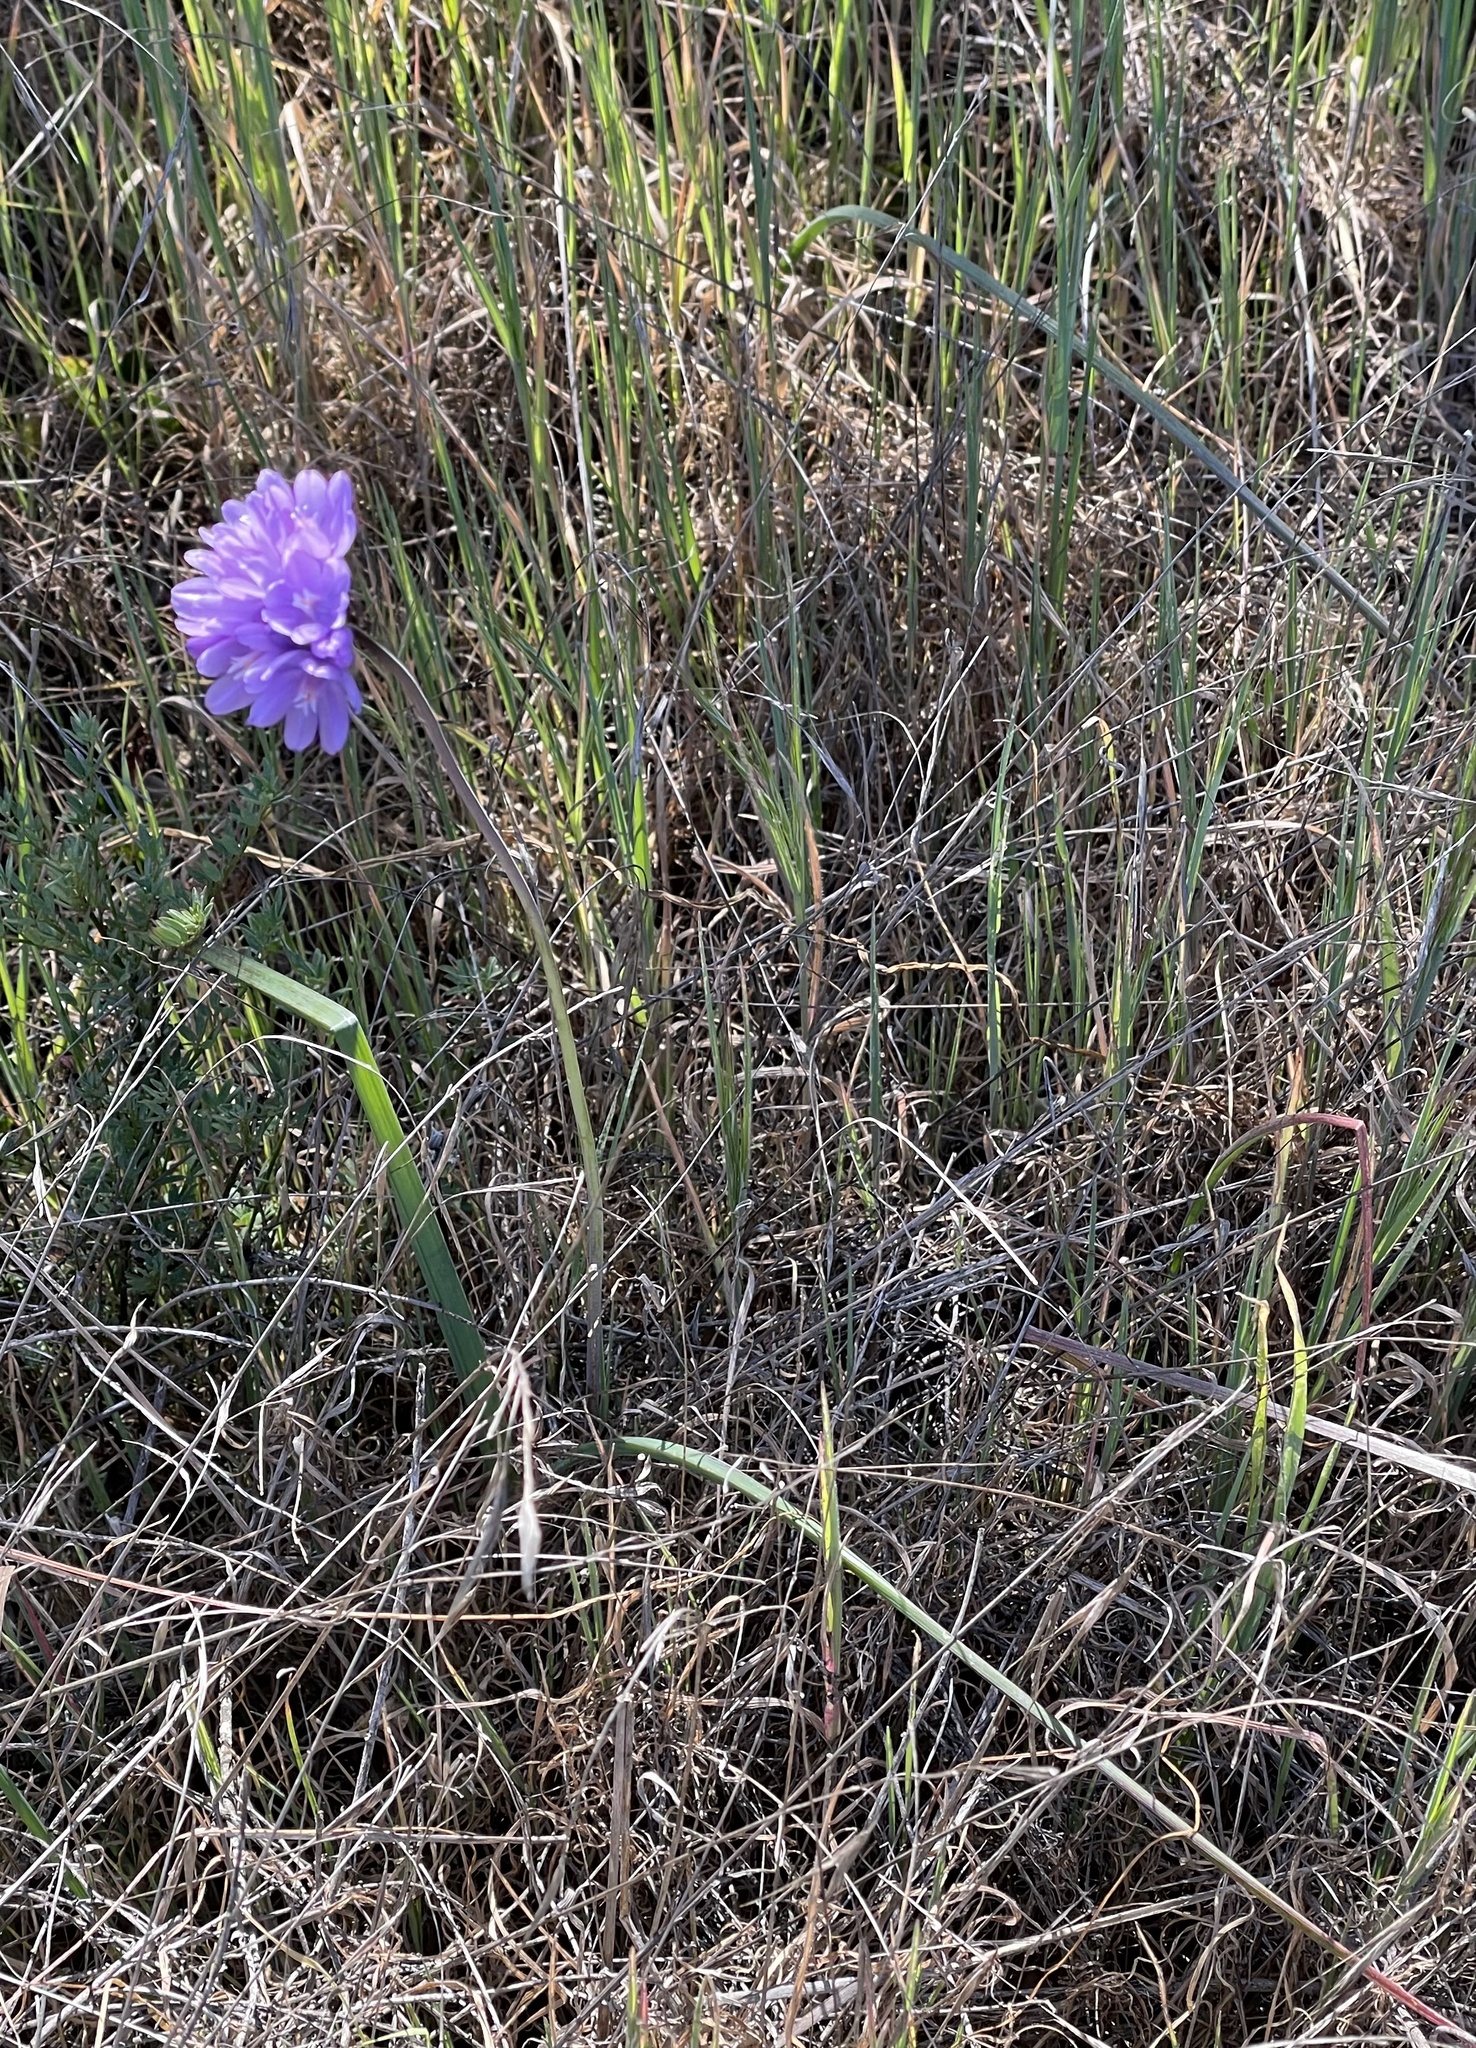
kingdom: Plantae
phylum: Tracheophyta
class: Liliopsida
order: Asparagales
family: Asparagaceae
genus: Dipterostemon
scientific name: Dipterostemon capitatus
